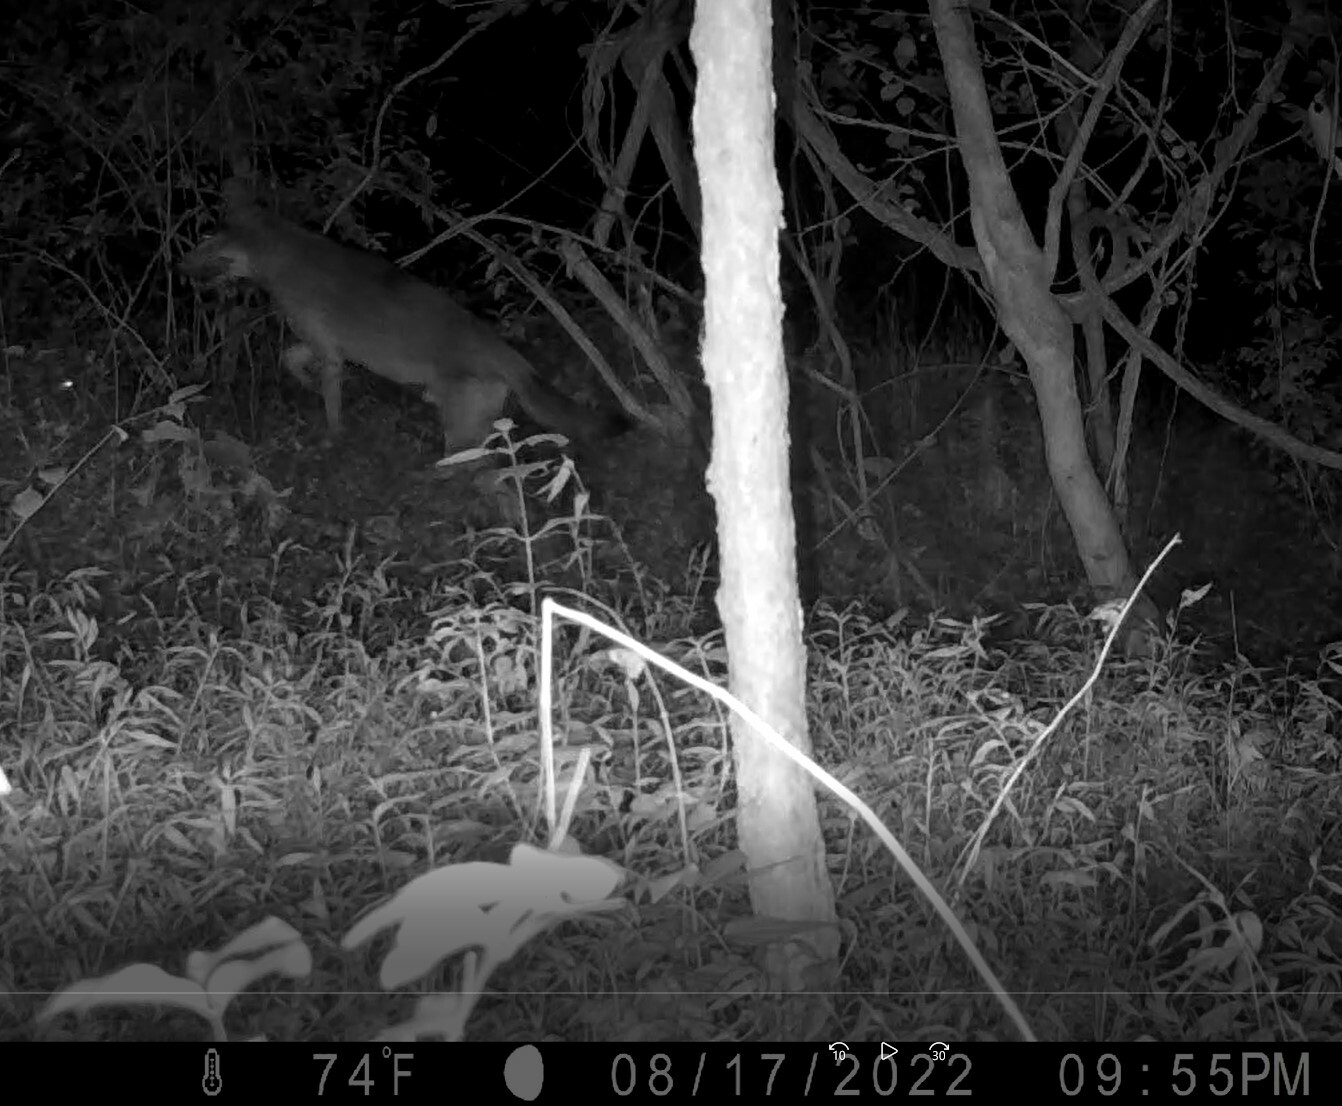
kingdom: Animalia
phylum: Chordata
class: Mammalia
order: Carnivora
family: Canidae
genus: Canis
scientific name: Canis latrans
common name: Coyote
